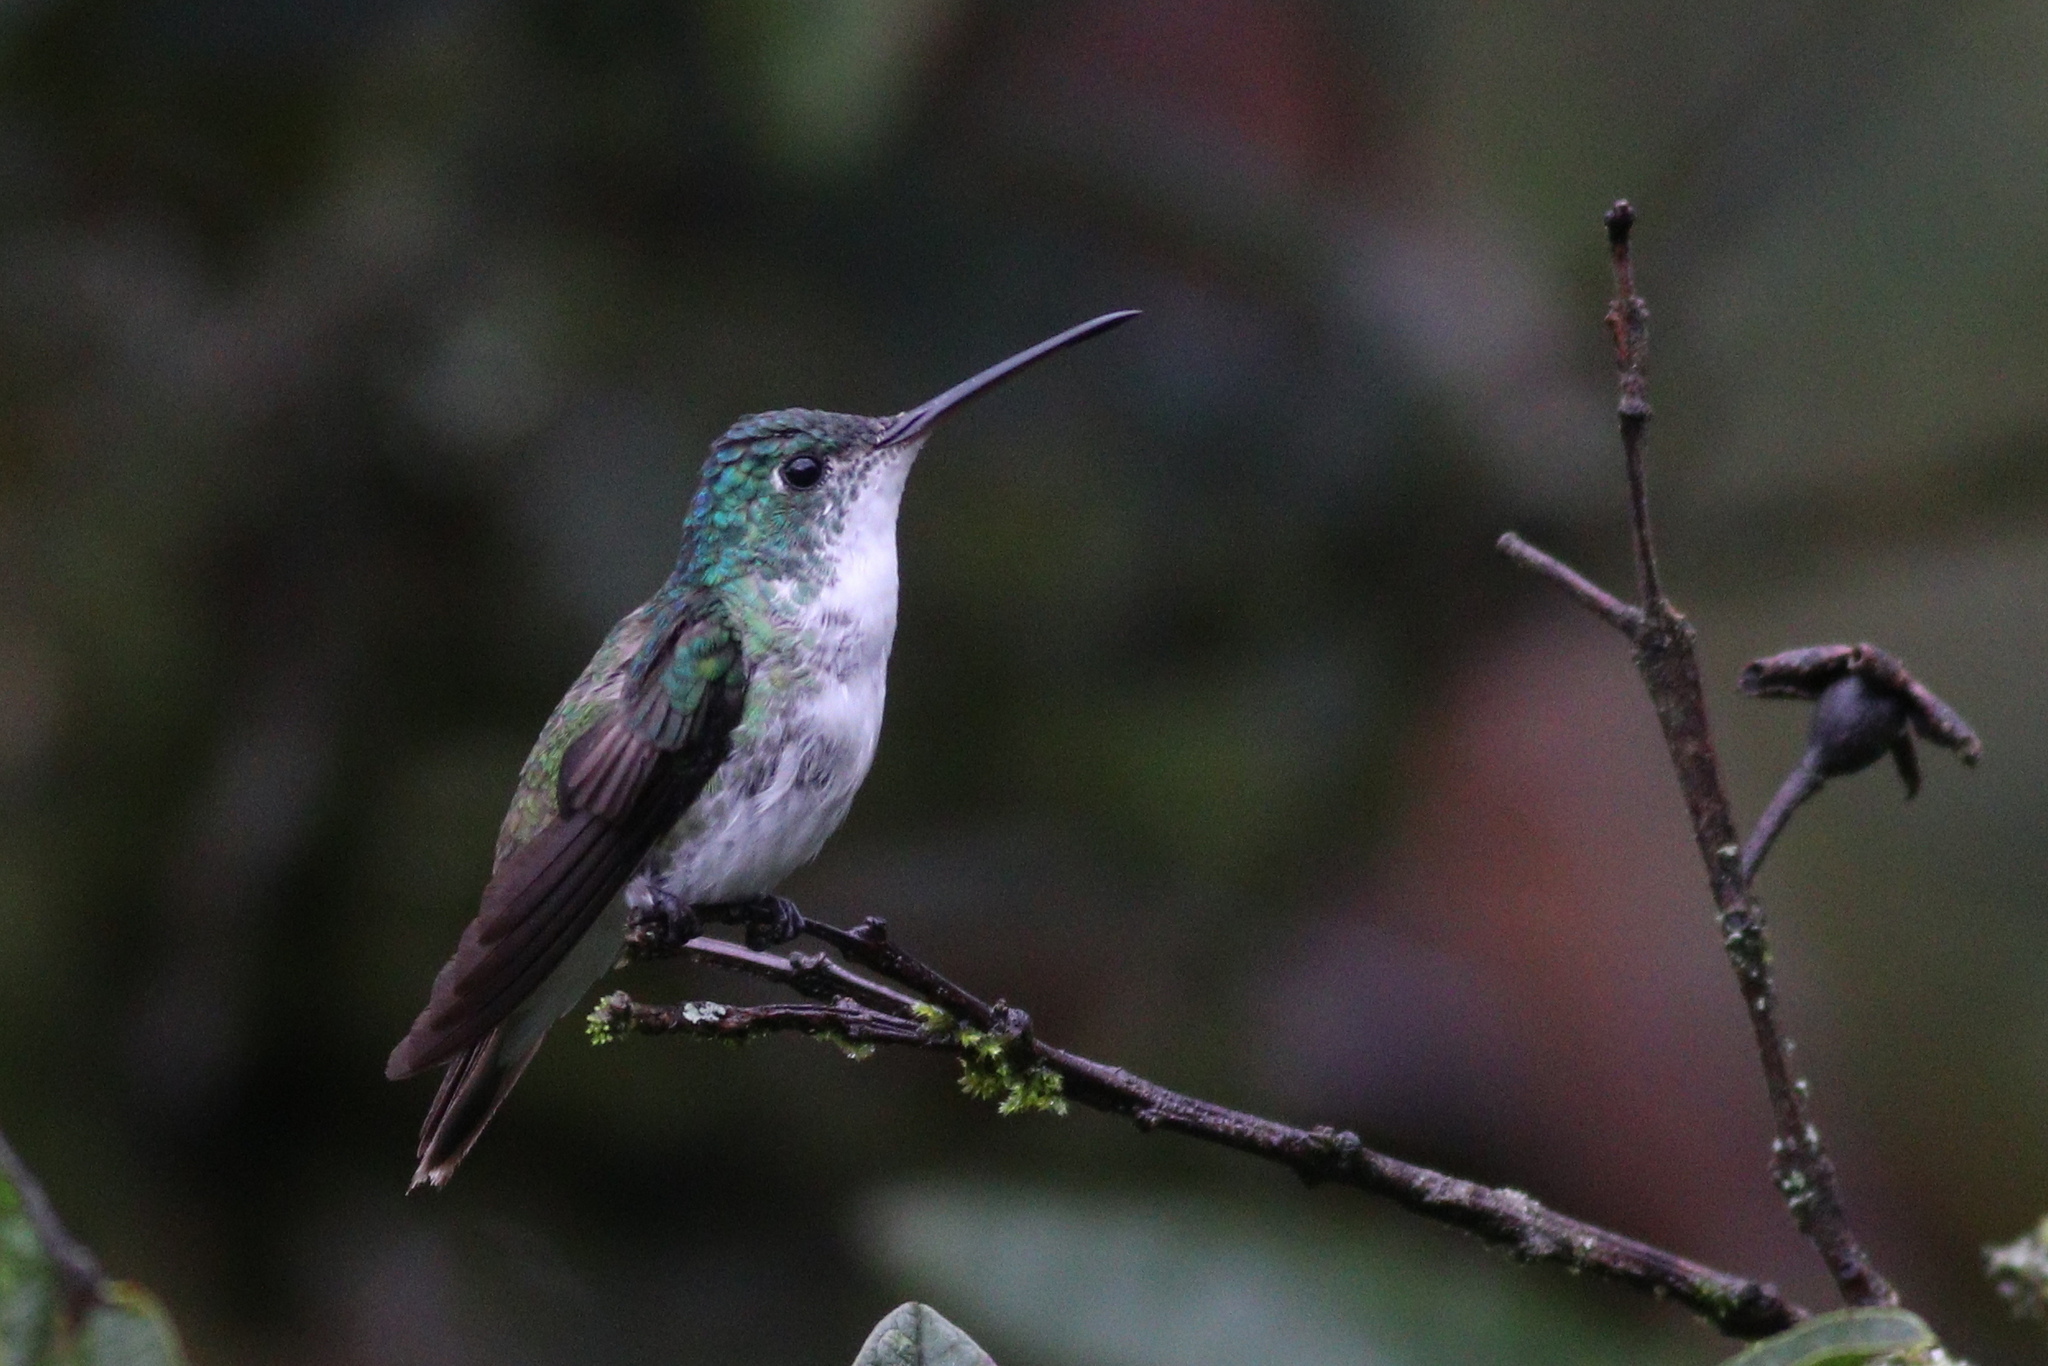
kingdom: Animalia
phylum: Chordata
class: Aves
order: Apodiformes
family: Trochilidae
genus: Uranomitra
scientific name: Uranomitra franciae
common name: Andean emerald
